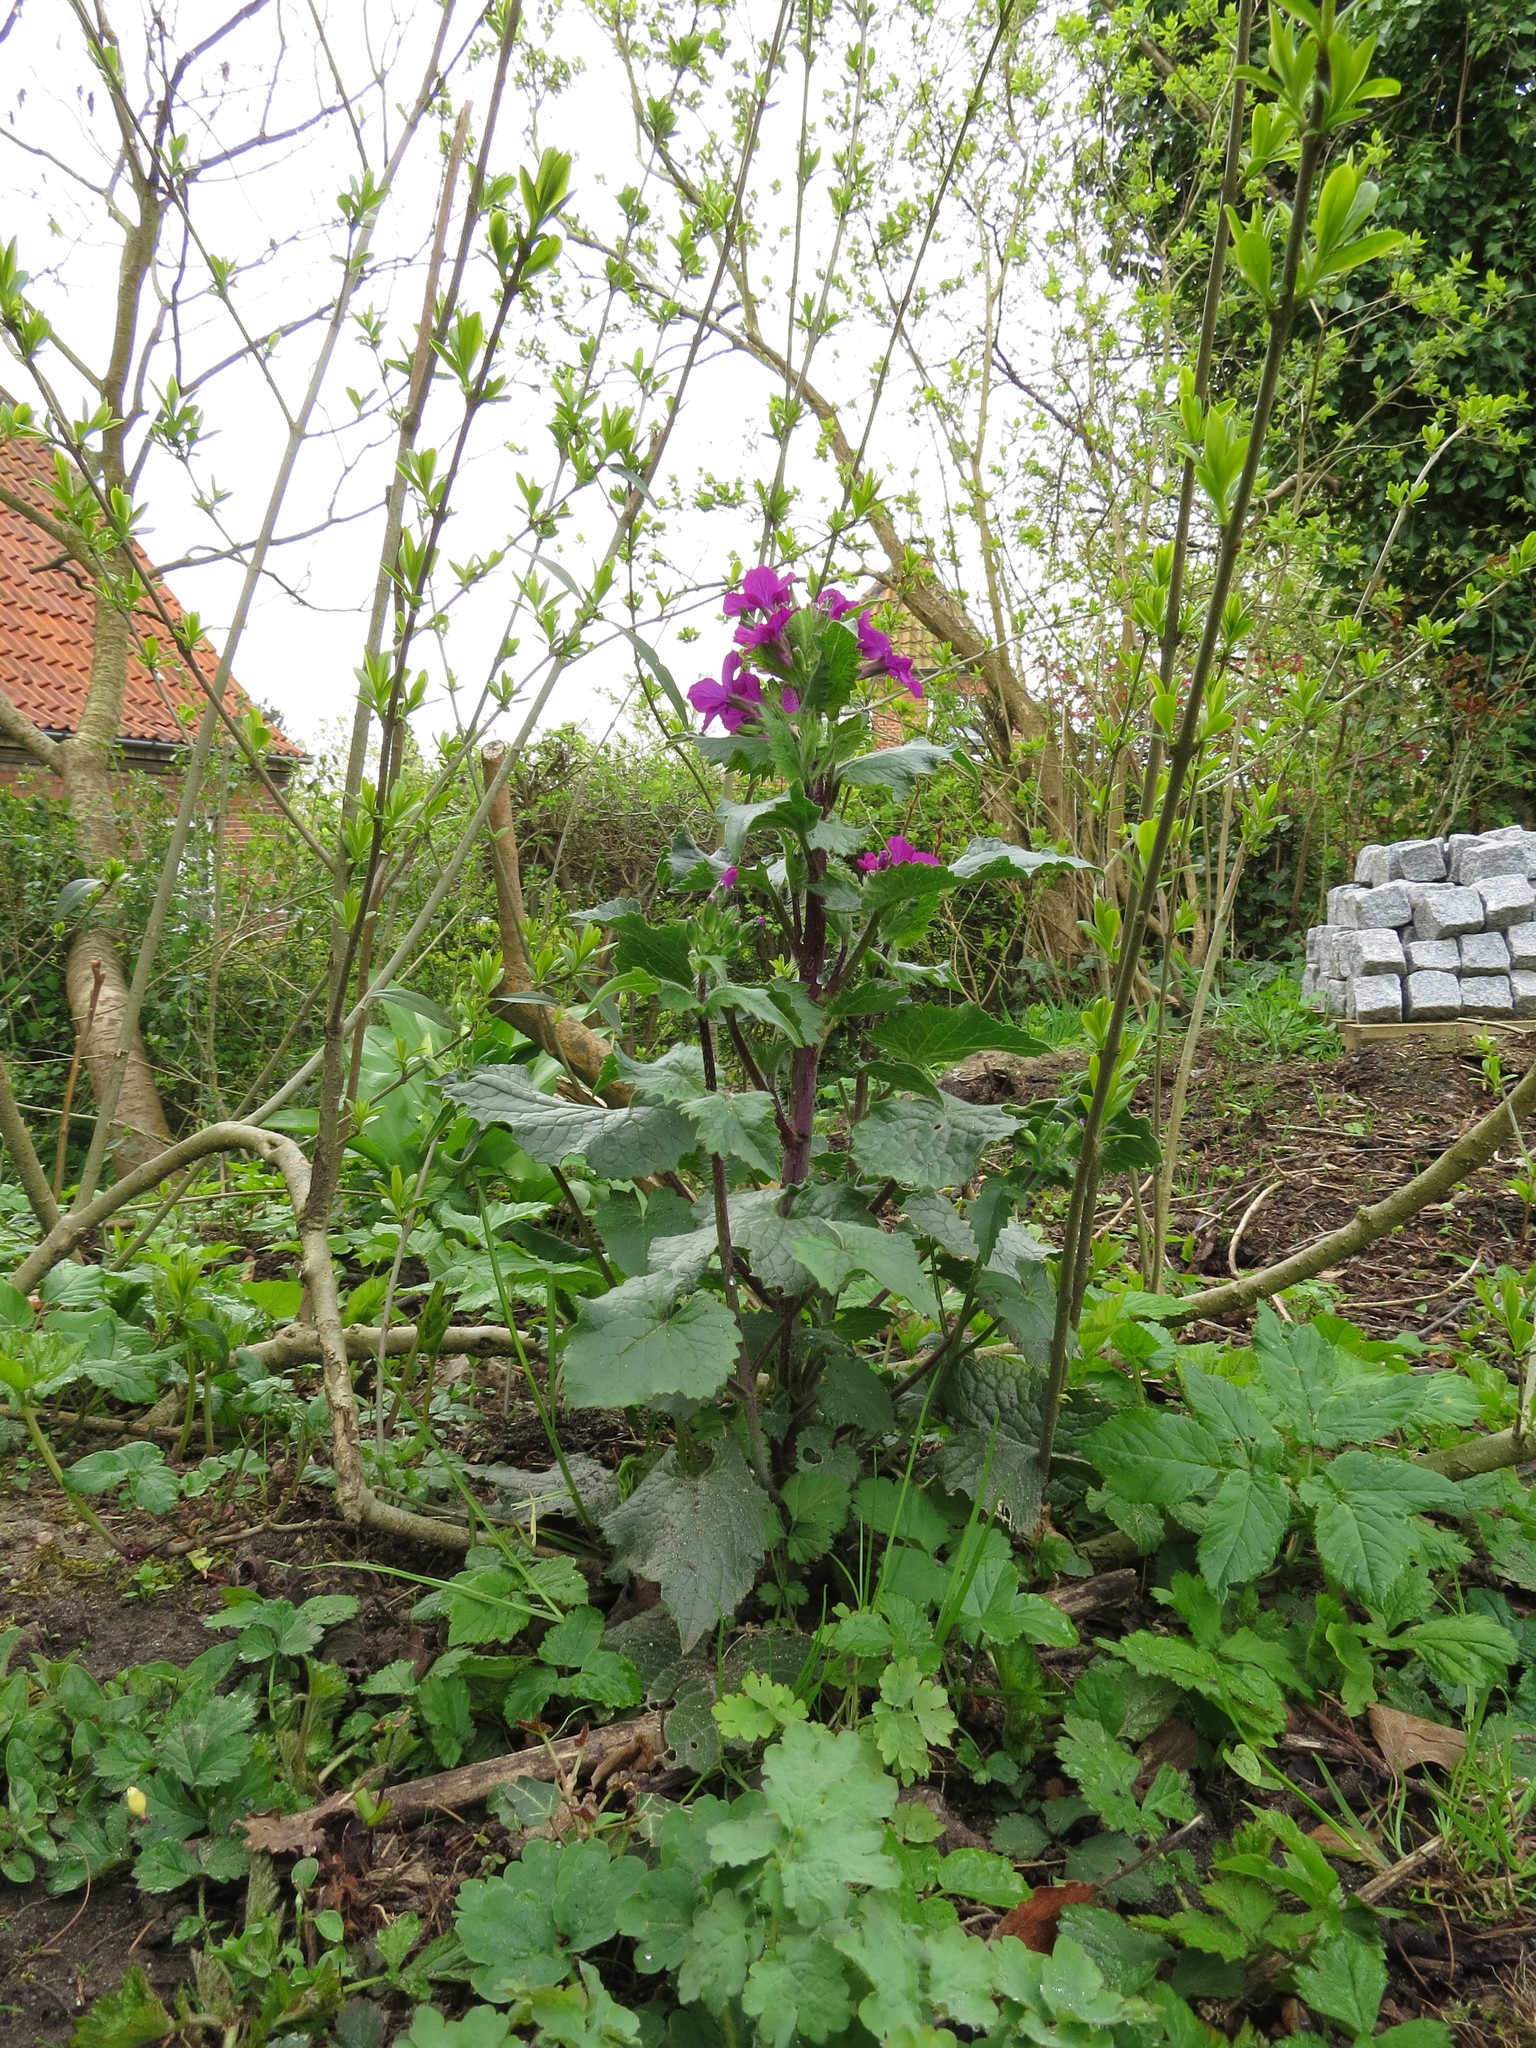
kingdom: Plantae
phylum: Tracheophyta
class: Magnoliopsida
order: Brassicales
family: Brassicaceae
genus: Lunaria
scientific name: Lunaria annua
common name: Honesty
